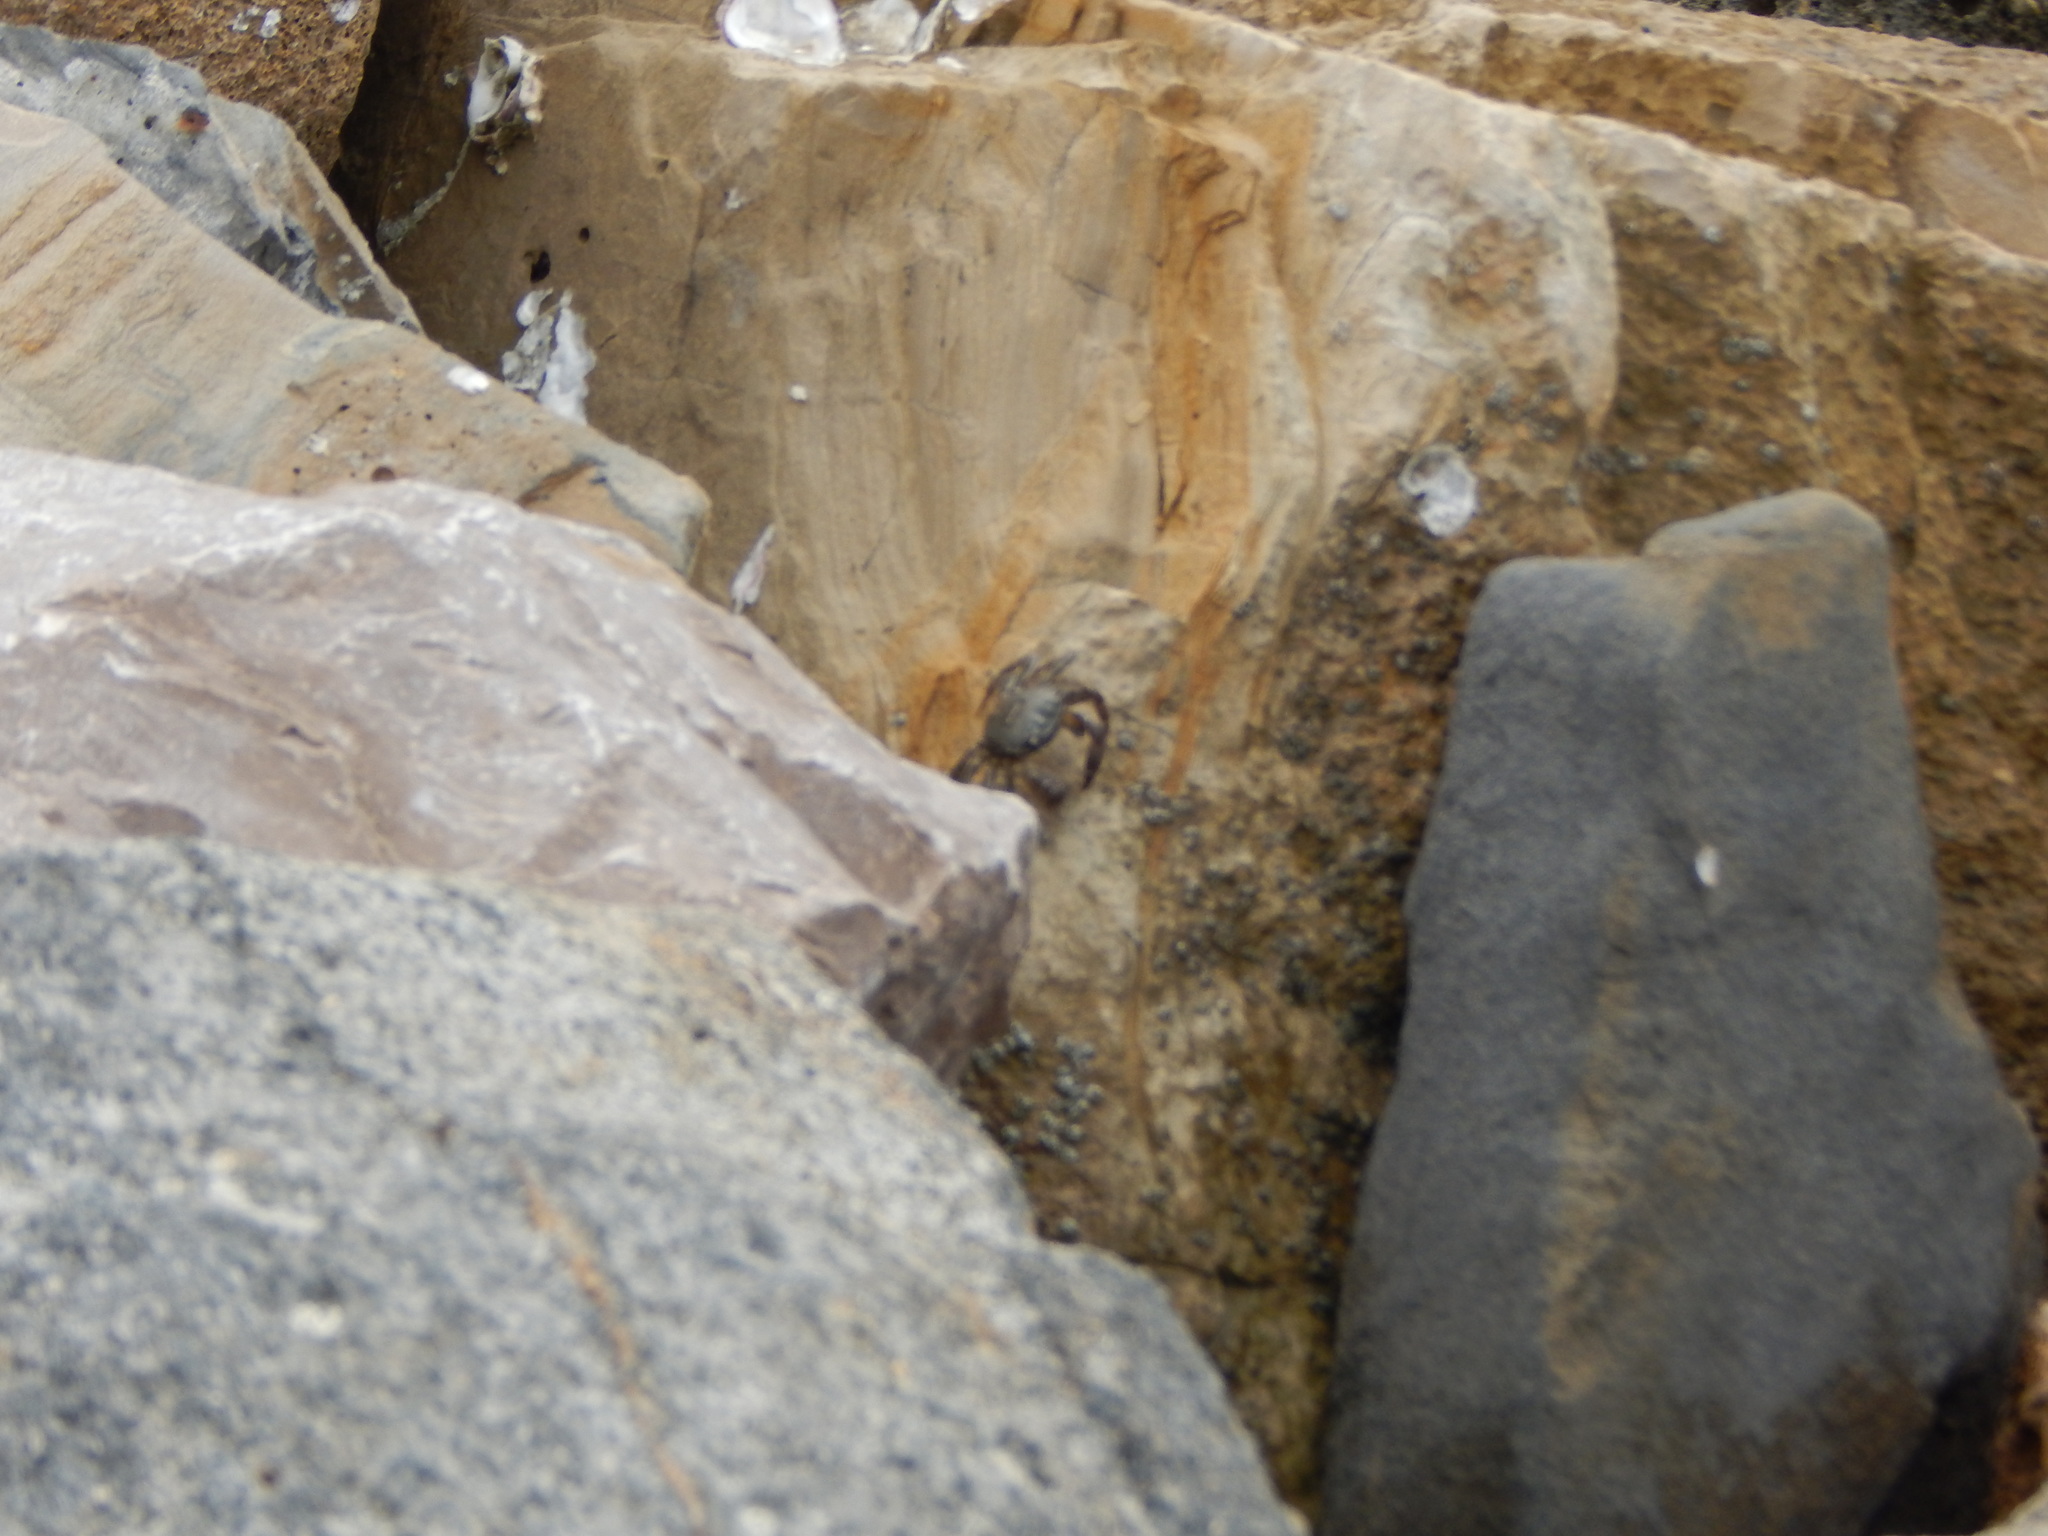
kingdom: Animalia
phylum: Arthropoda
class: Malacostraca
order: Decapoda
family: Grapsidae
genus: Pachygrapsus
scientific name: Pachygrapsus marmoratus
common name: Marbled rock crab
